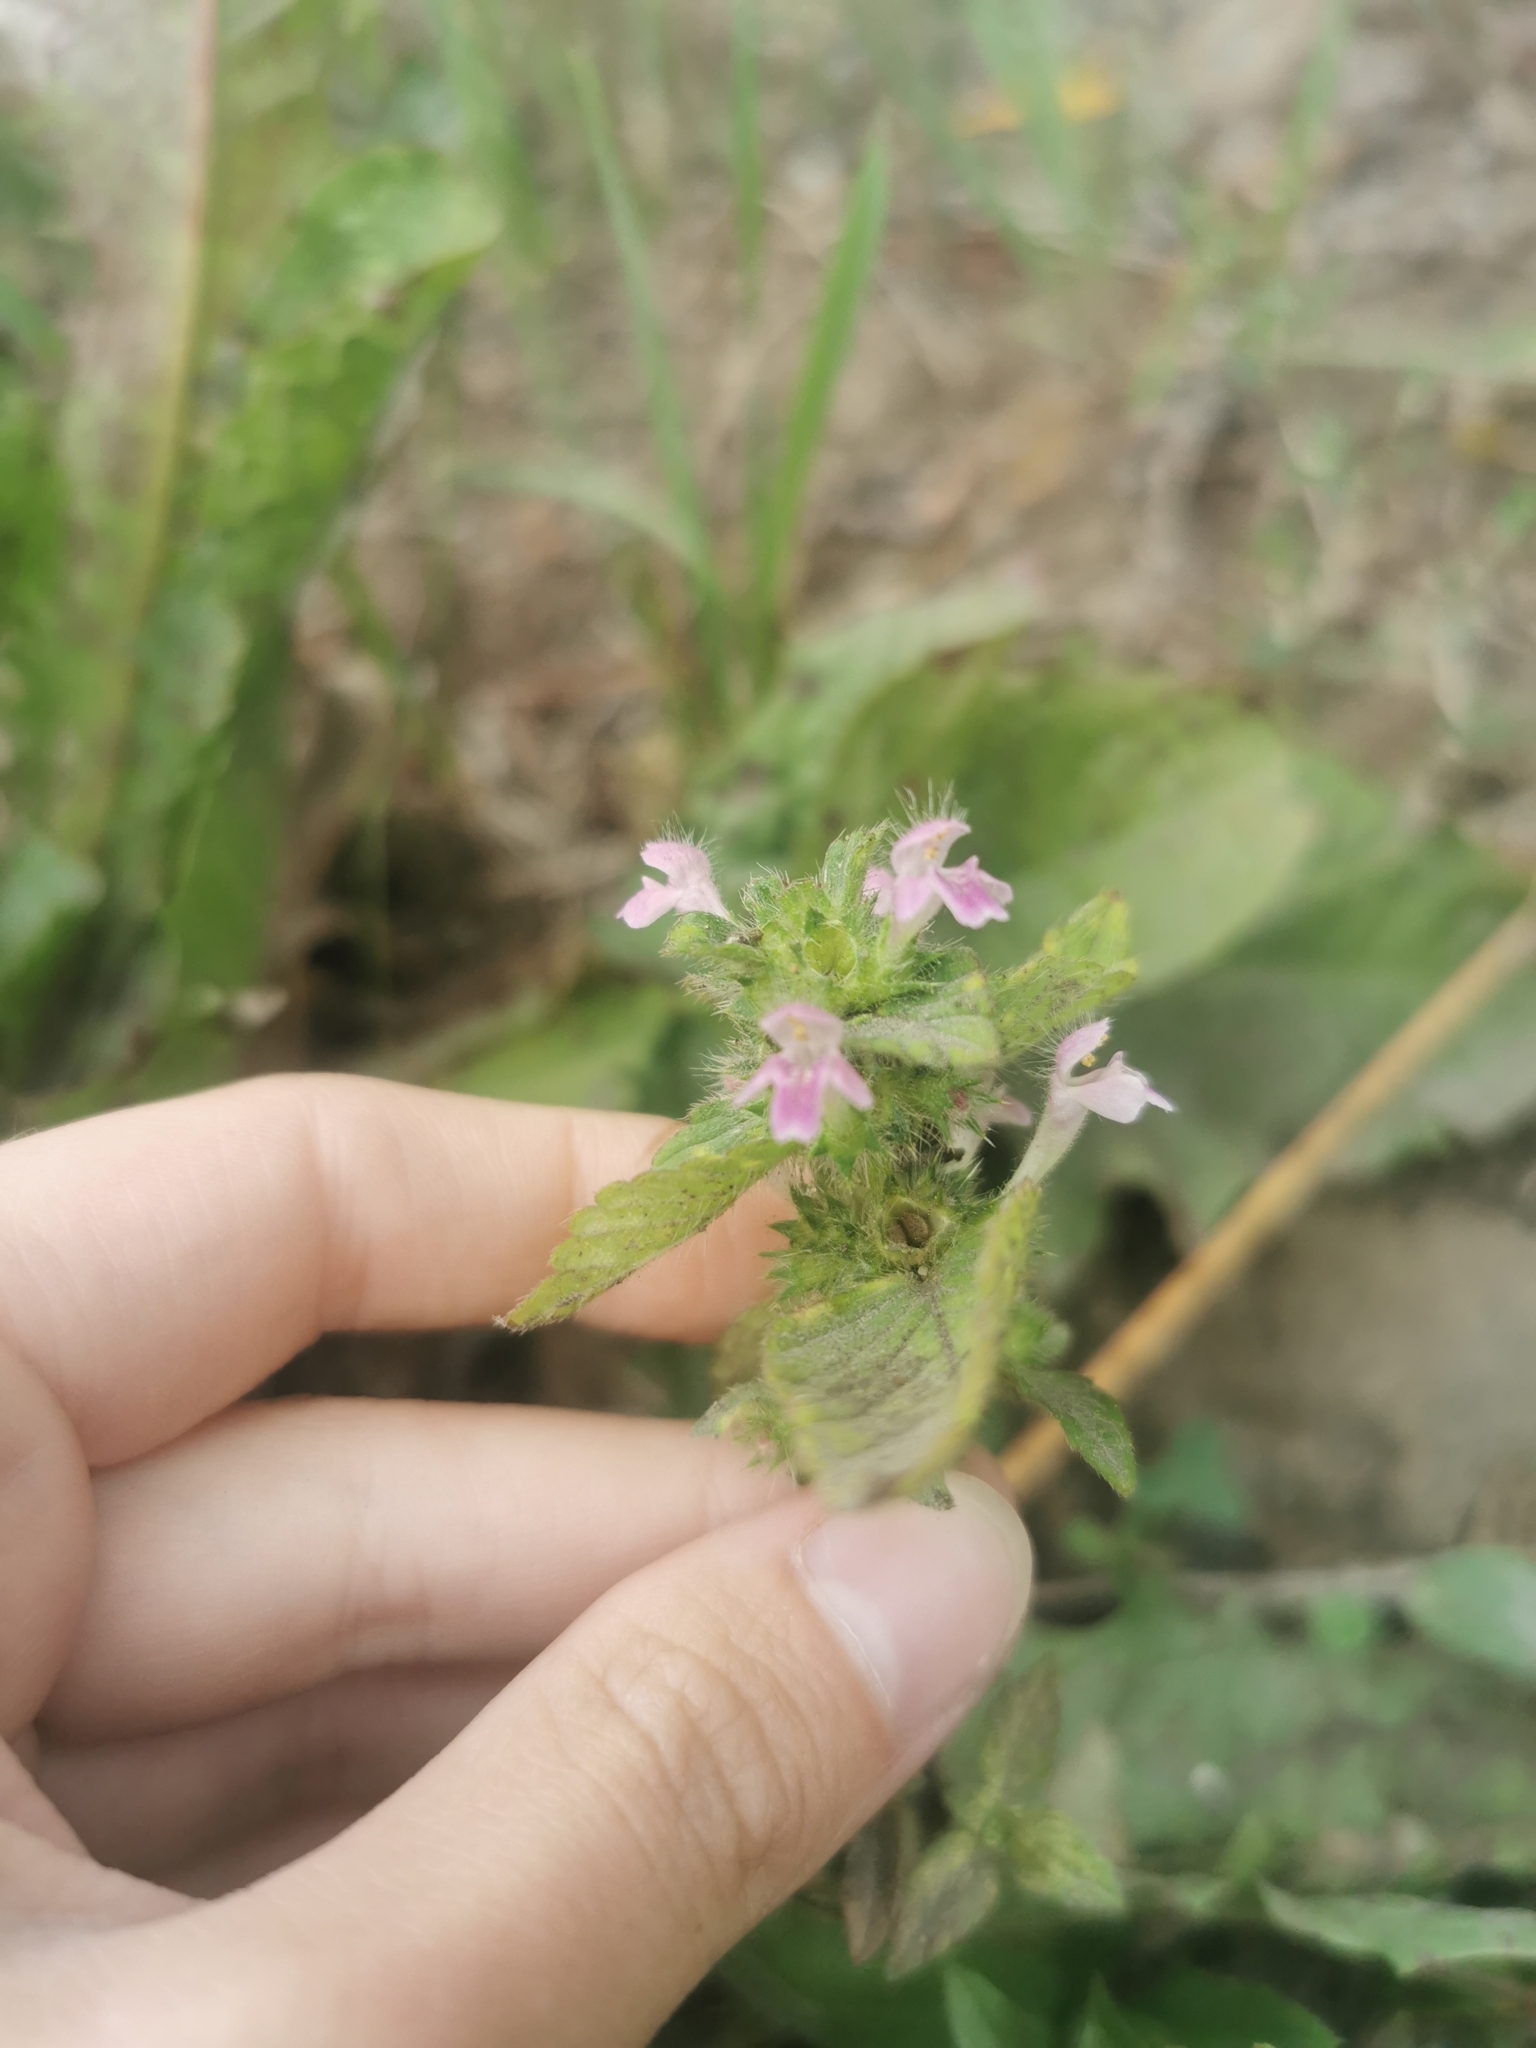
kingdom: Plantae
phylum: Tracheophyta
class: Magnoliopsida
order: Lamiales
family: Lamiaceae
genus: Galeopsis
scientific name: Galeopsis bifida
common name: Bifid hemp-nettle
